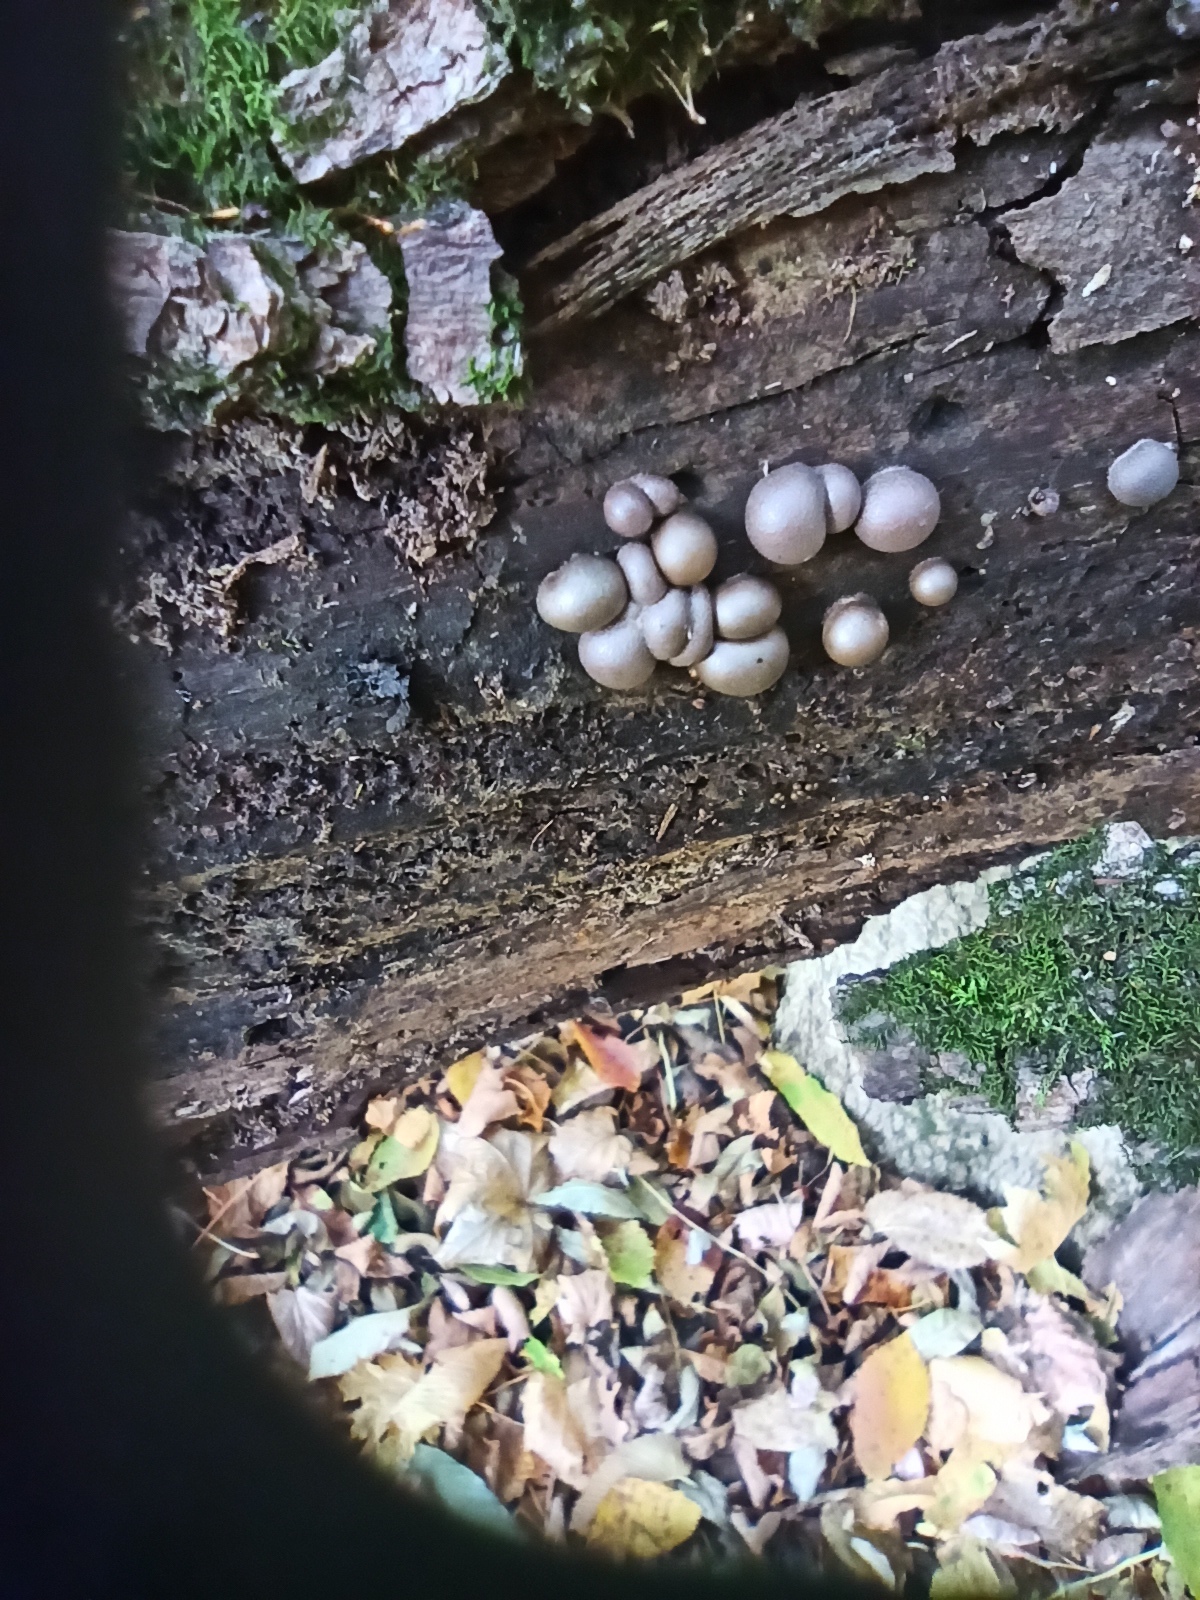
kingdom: Protozoa
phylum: Mycetozoa
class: Myxomycetes
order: Cribrariales
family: Tubiferaceae
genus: Lycogala
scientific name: Lycogala epidendrum
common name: Wolf's milk
